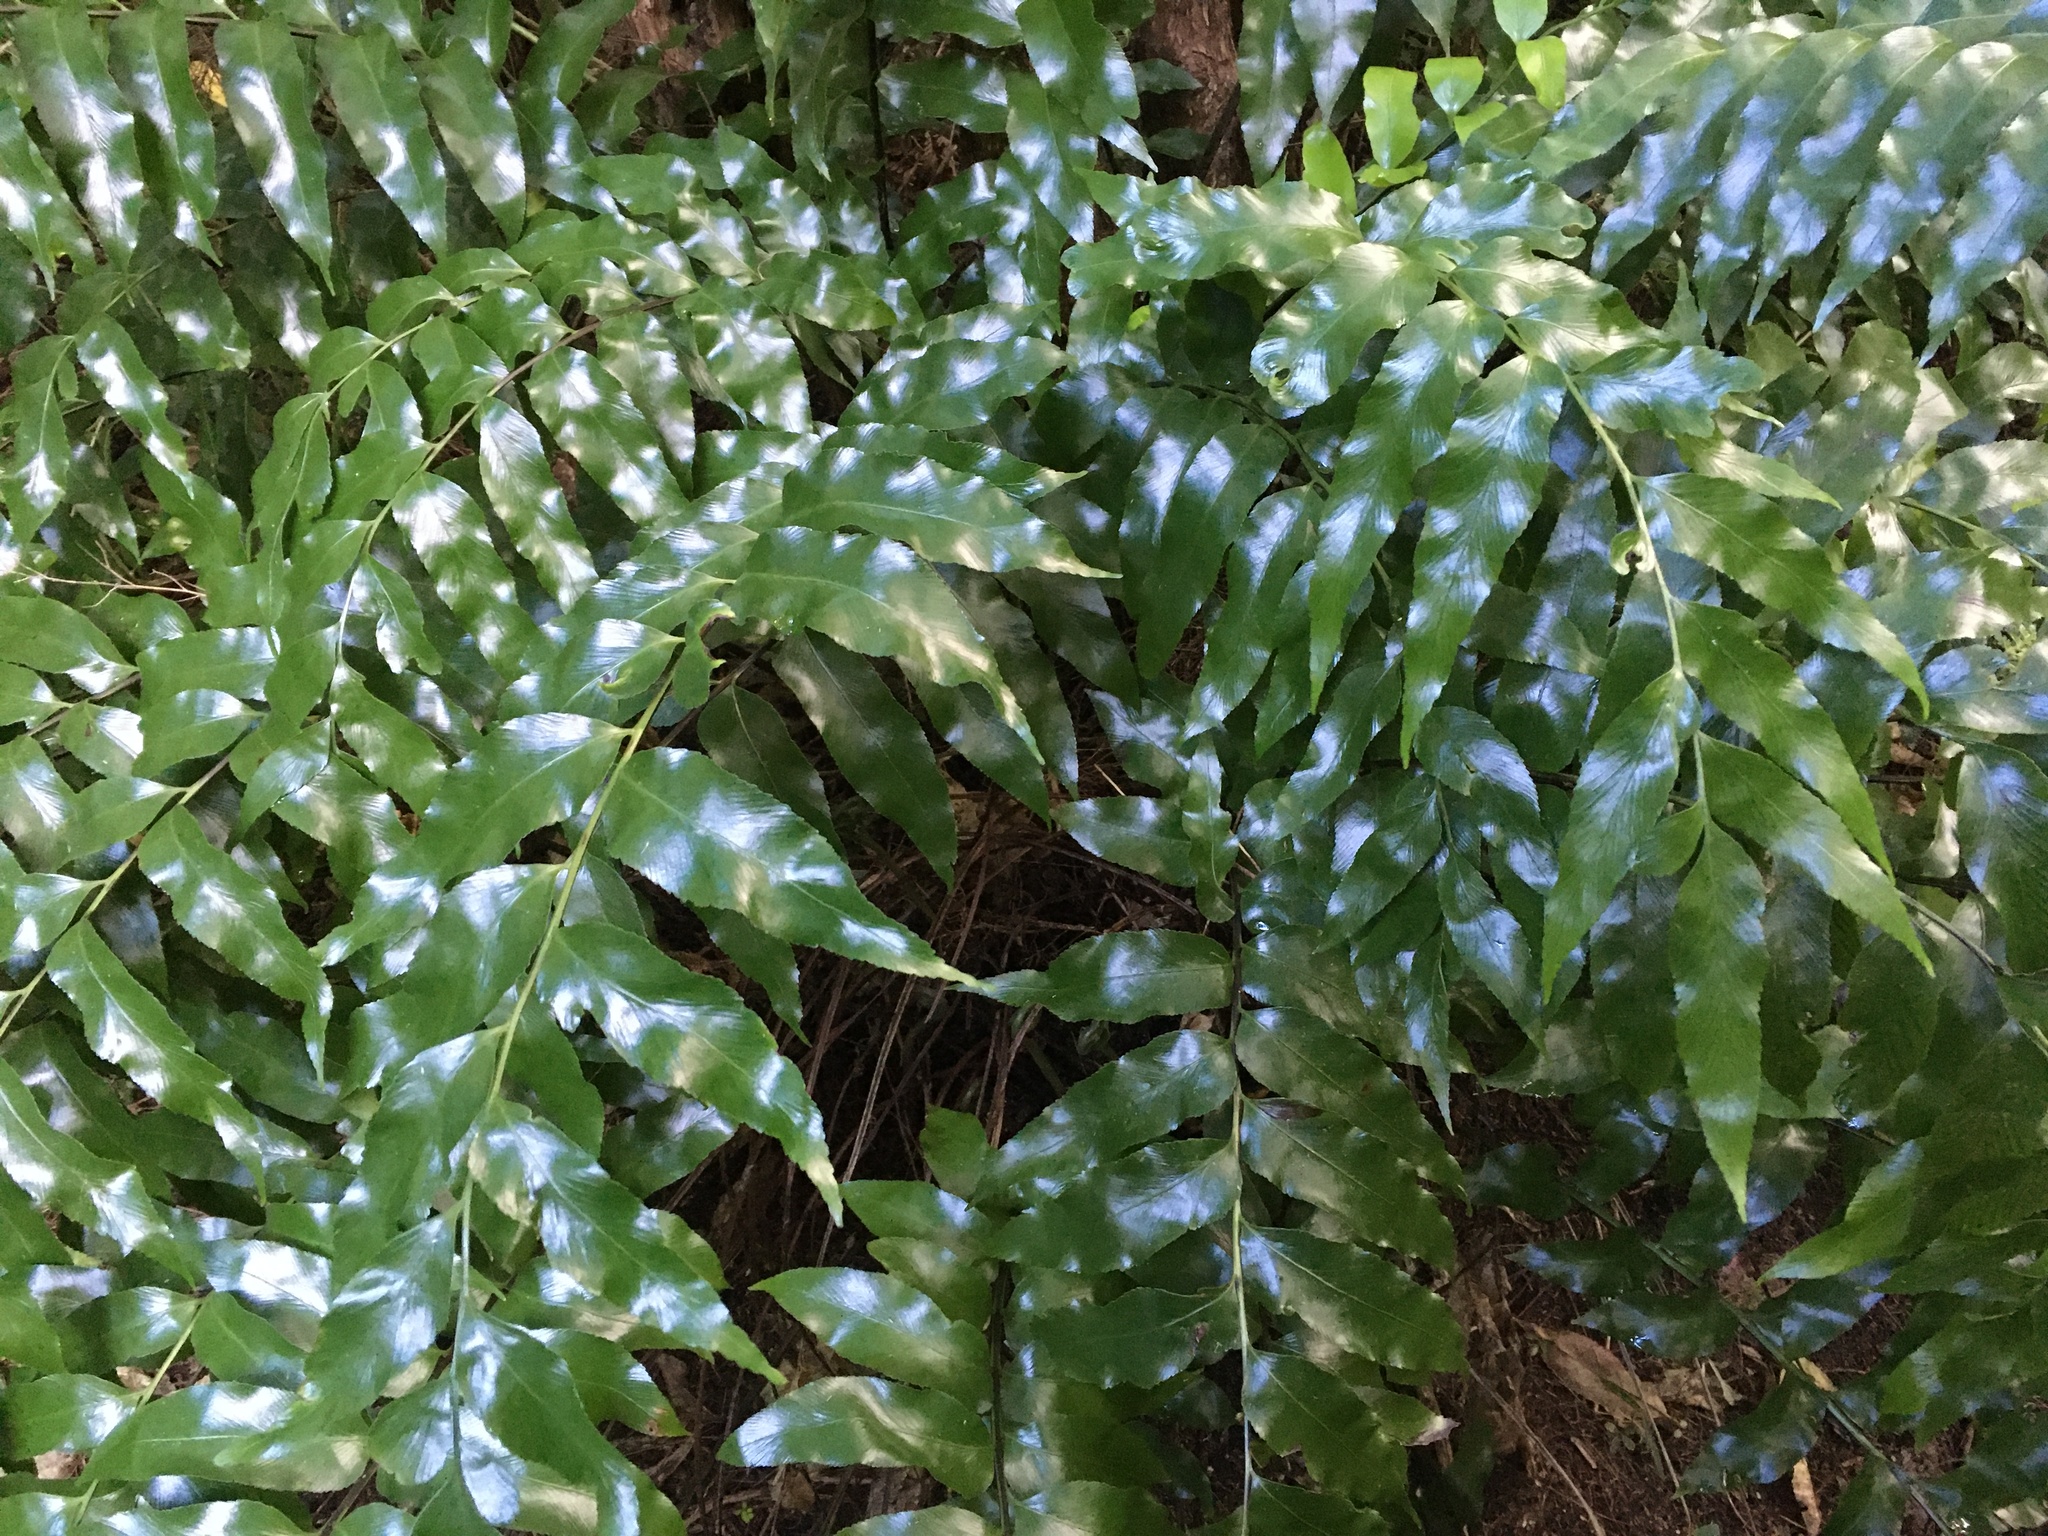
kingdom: Plantae
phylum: Tracheophyta
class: Polypodiopsida
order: Polypodiales
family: Aspleniaceae
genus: Asplenium
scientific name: Asplenium oblongifolium
